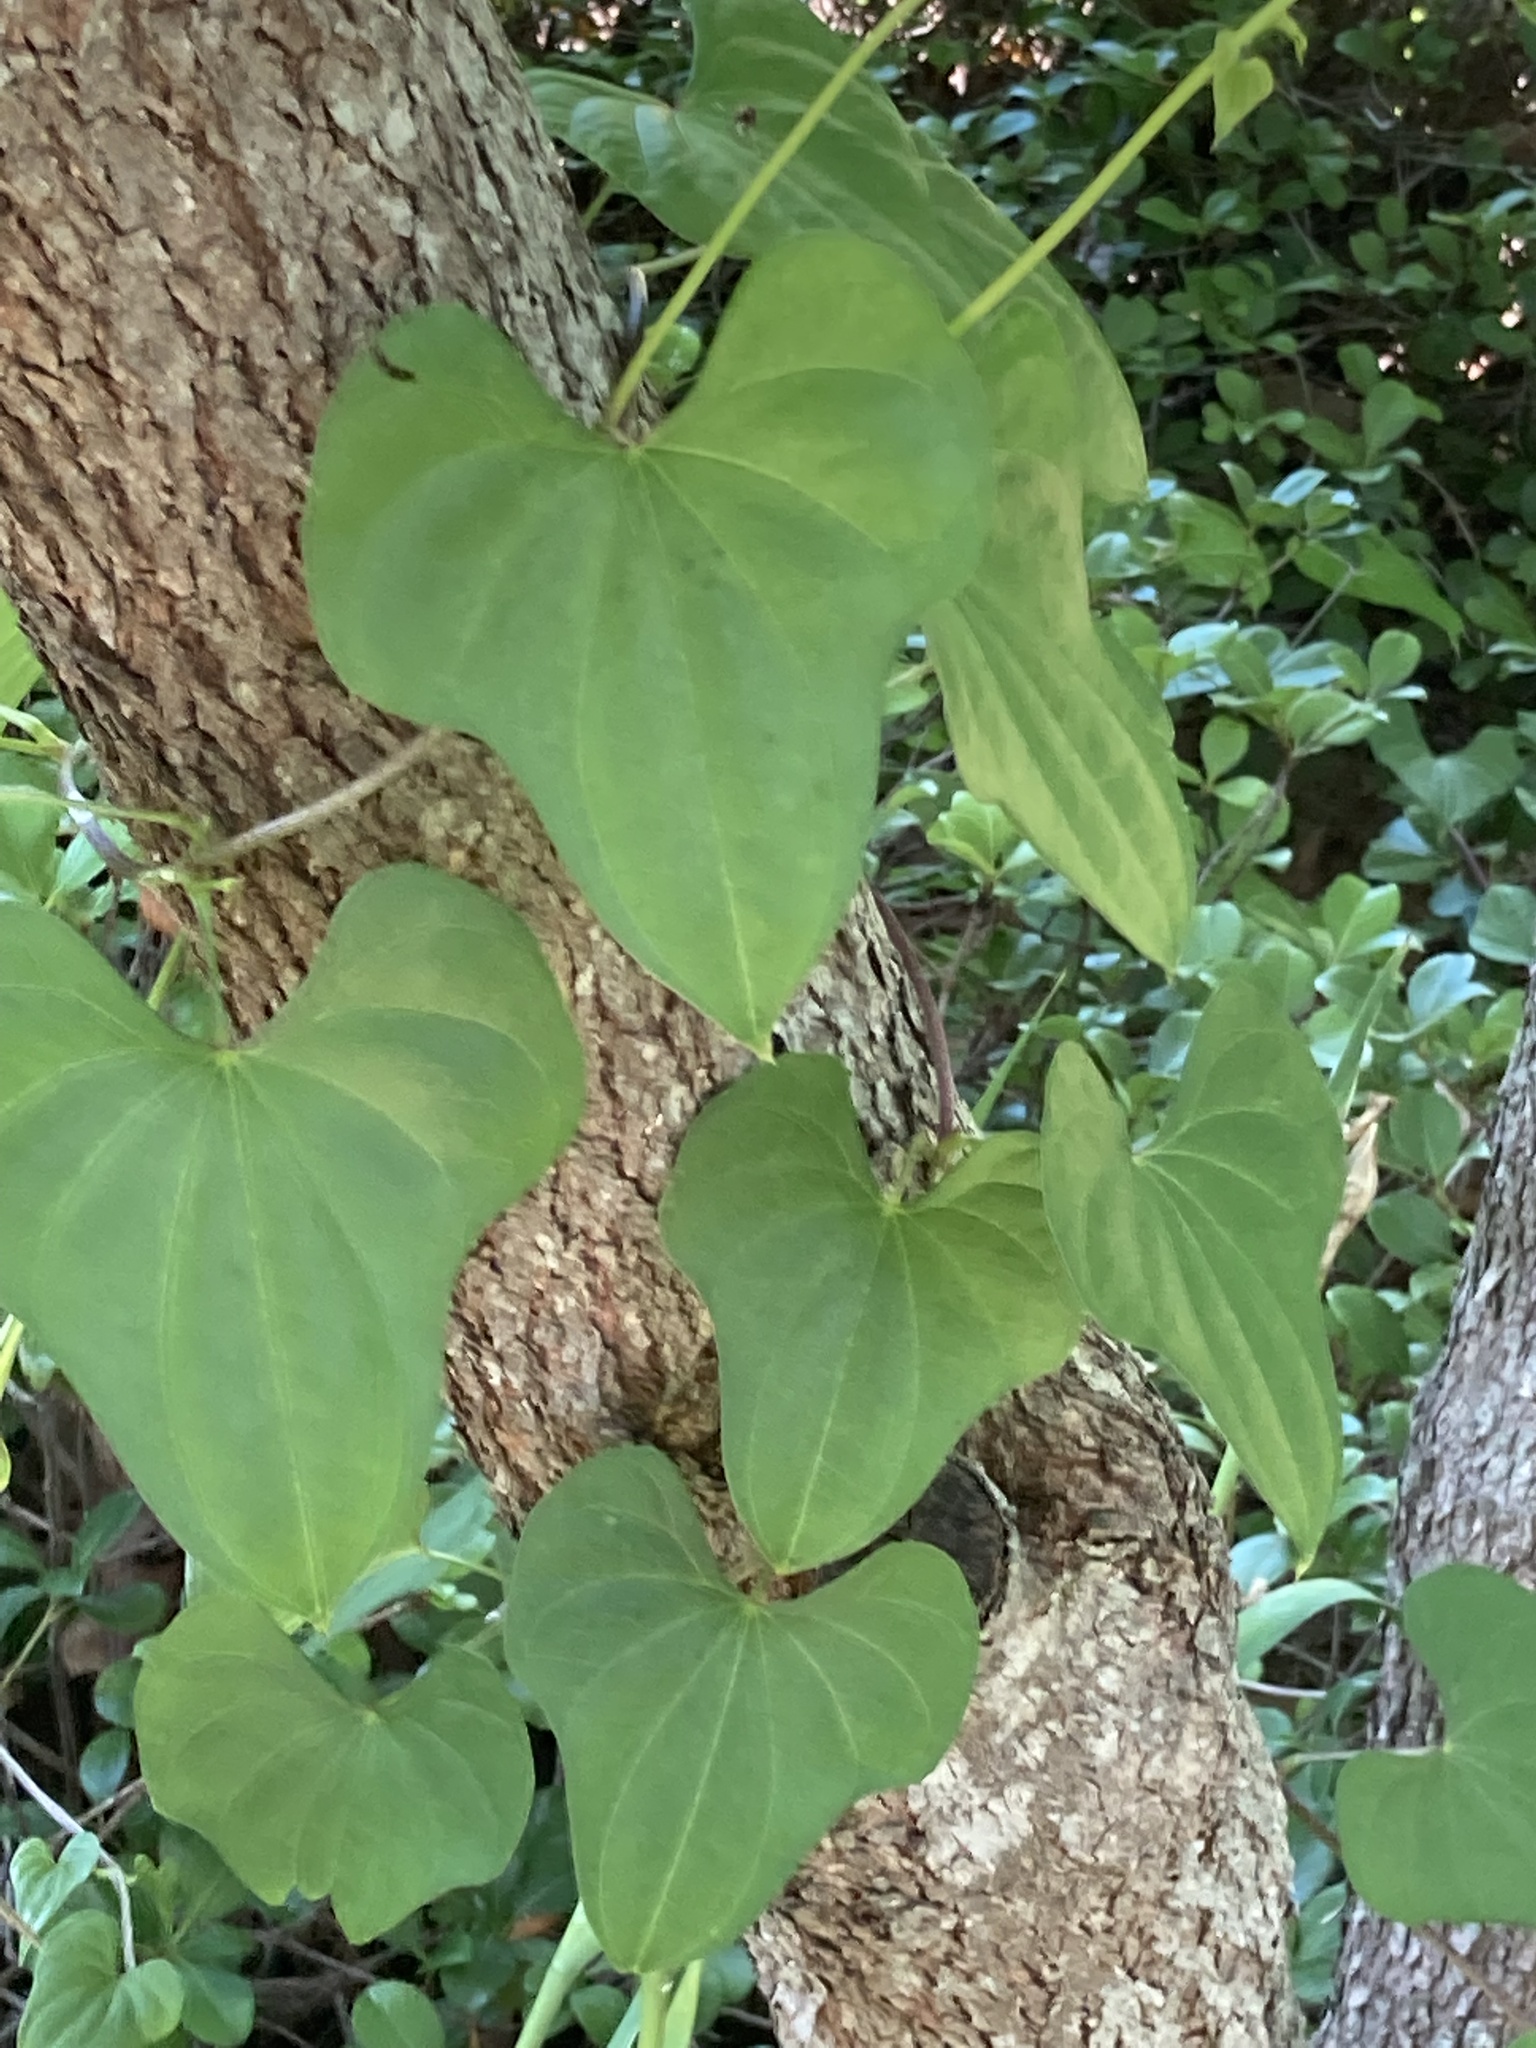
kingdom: Plantae
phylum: Tracheophyta
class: Liliopsida
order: Dioscoreales
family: Dioscoreaceae
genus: Dioscorea
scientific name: Dioscorea polystachya
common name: Chinese yam
